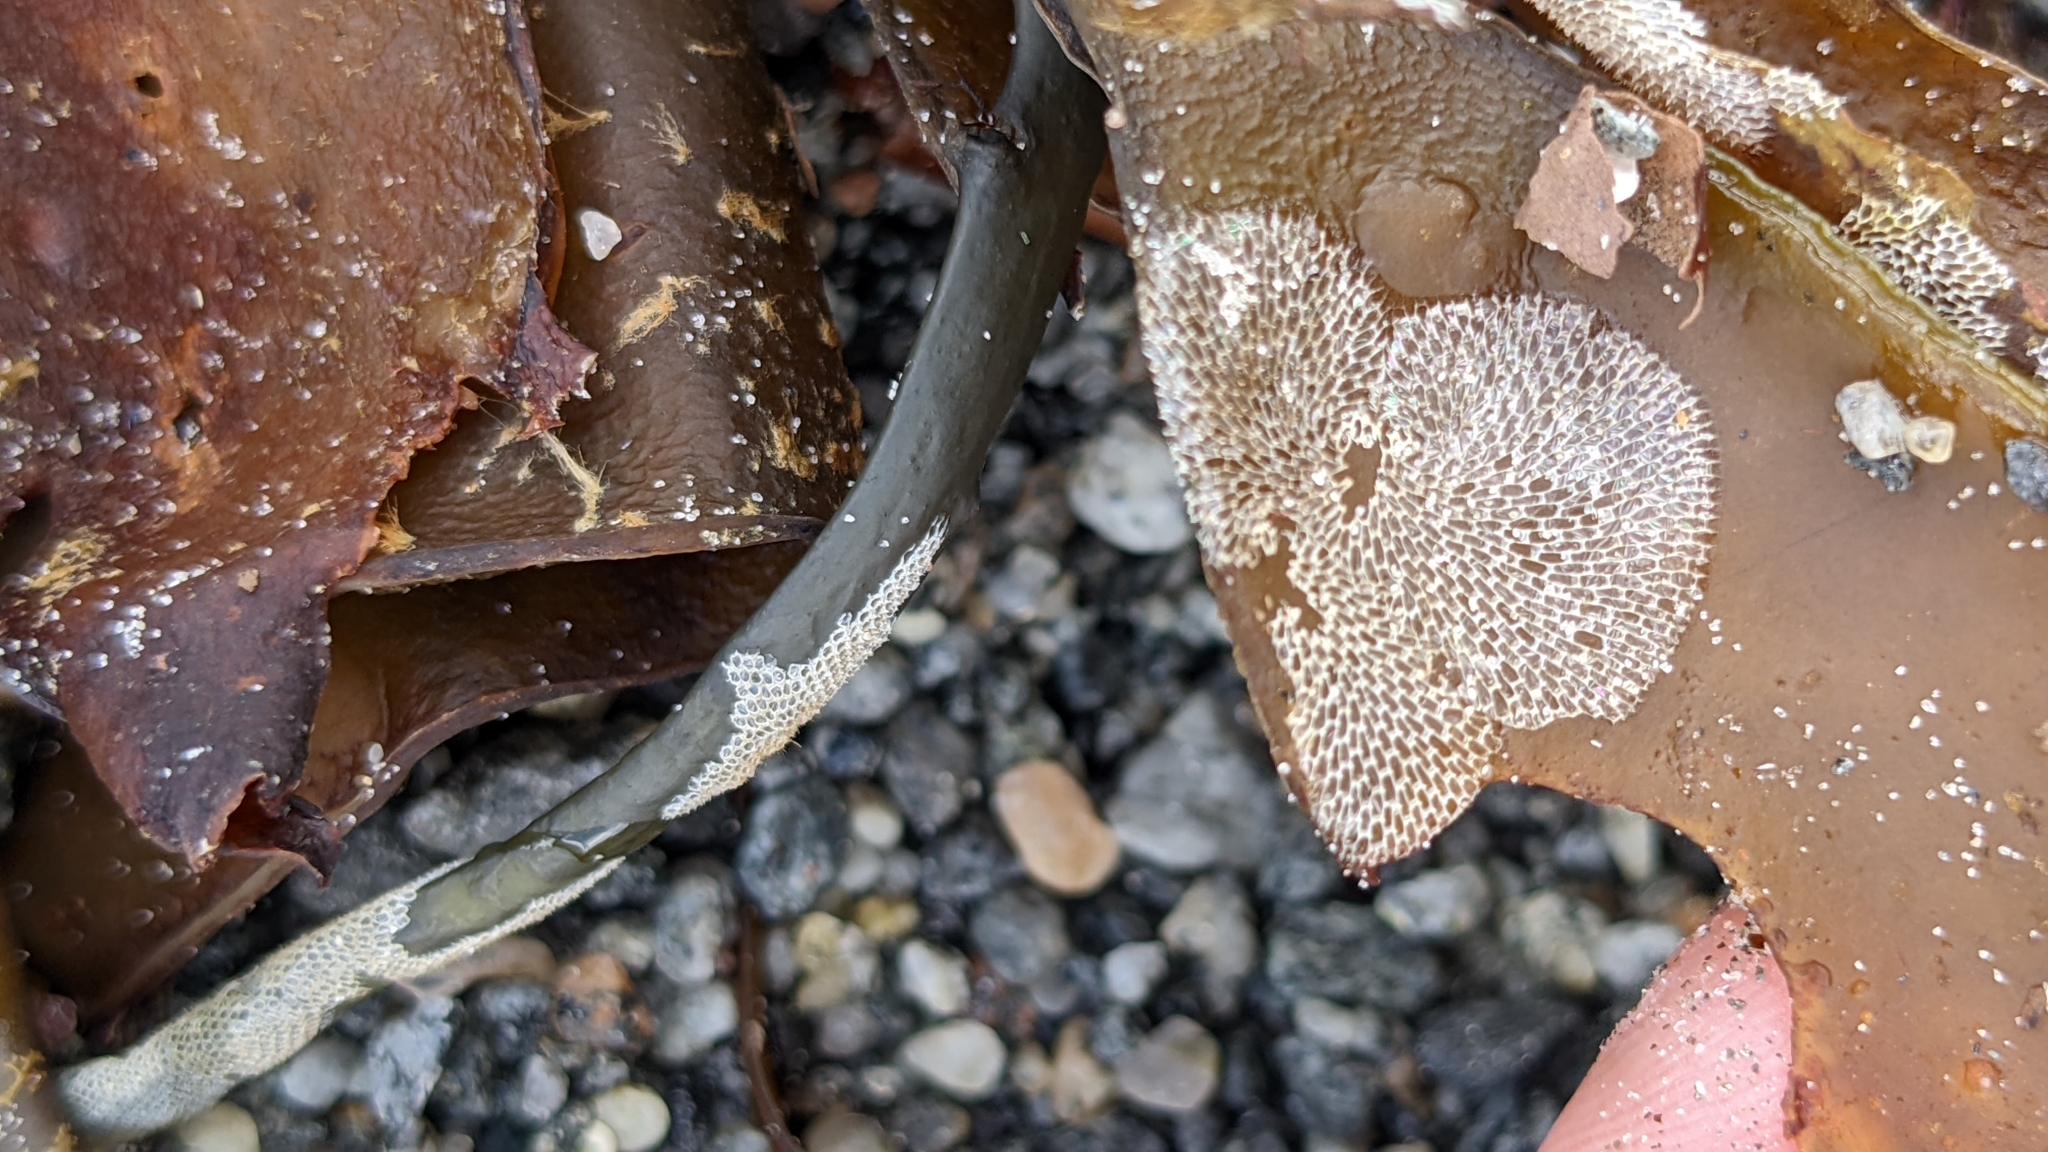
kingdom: Animalia
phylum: Bryozoa
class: Gymnolaemata
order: Cheilostomatida
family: Membraniporidae
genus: Membranipora
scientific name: Membranipora membranacea
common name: Sea mat
